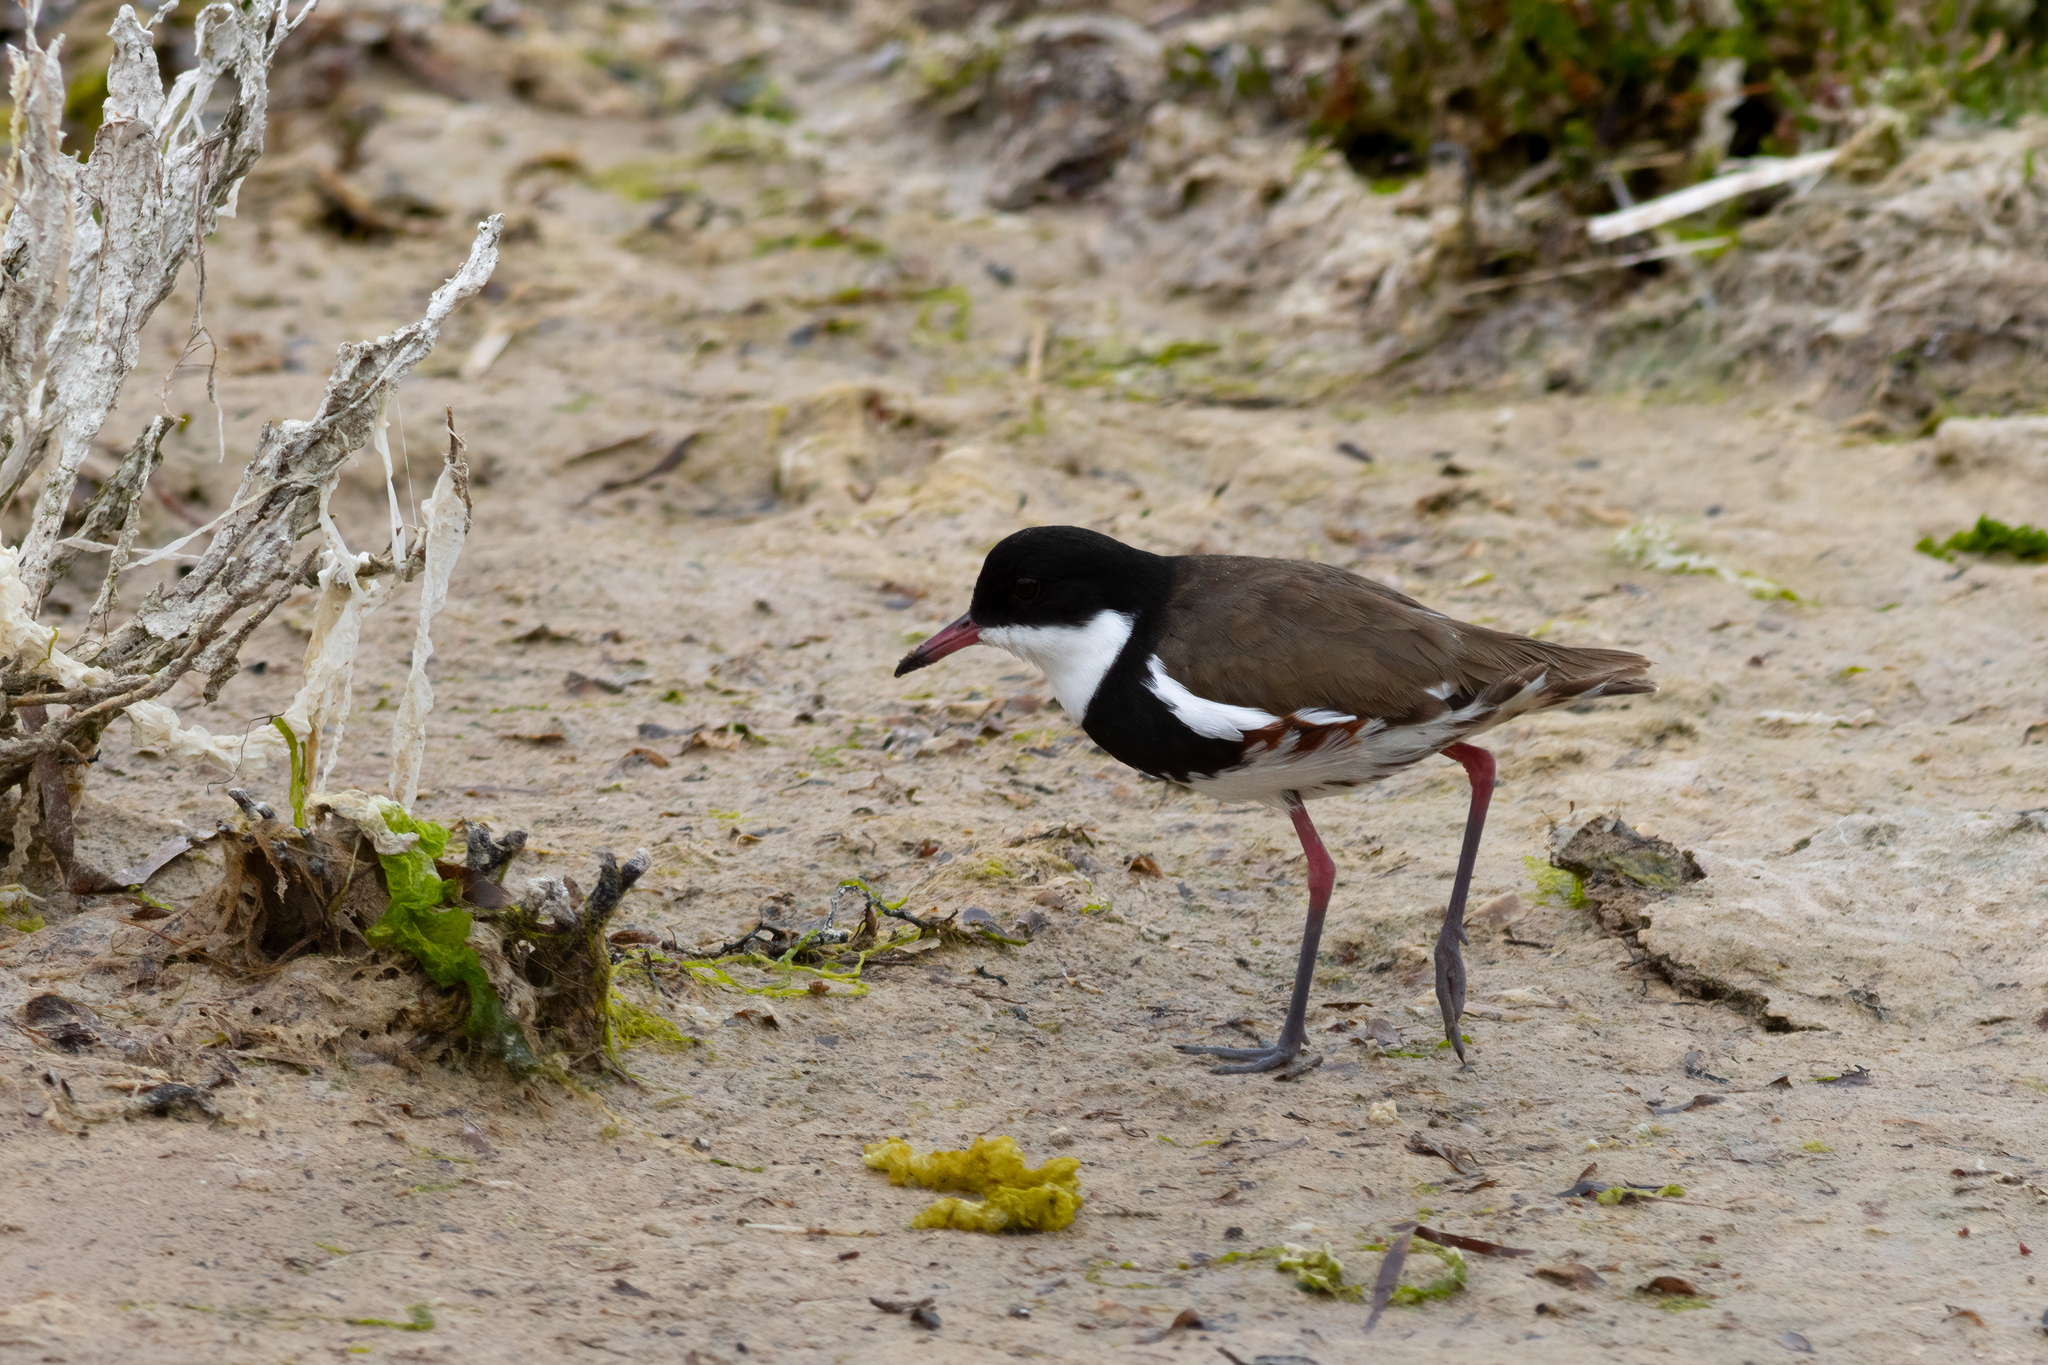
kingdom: Animalia
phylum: Chordata
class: Aves
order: Charadriiformes
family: Charadriidae
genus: Erythrogonys
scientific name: Erythrogonys cinctus
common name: Red-kneed dotterel
